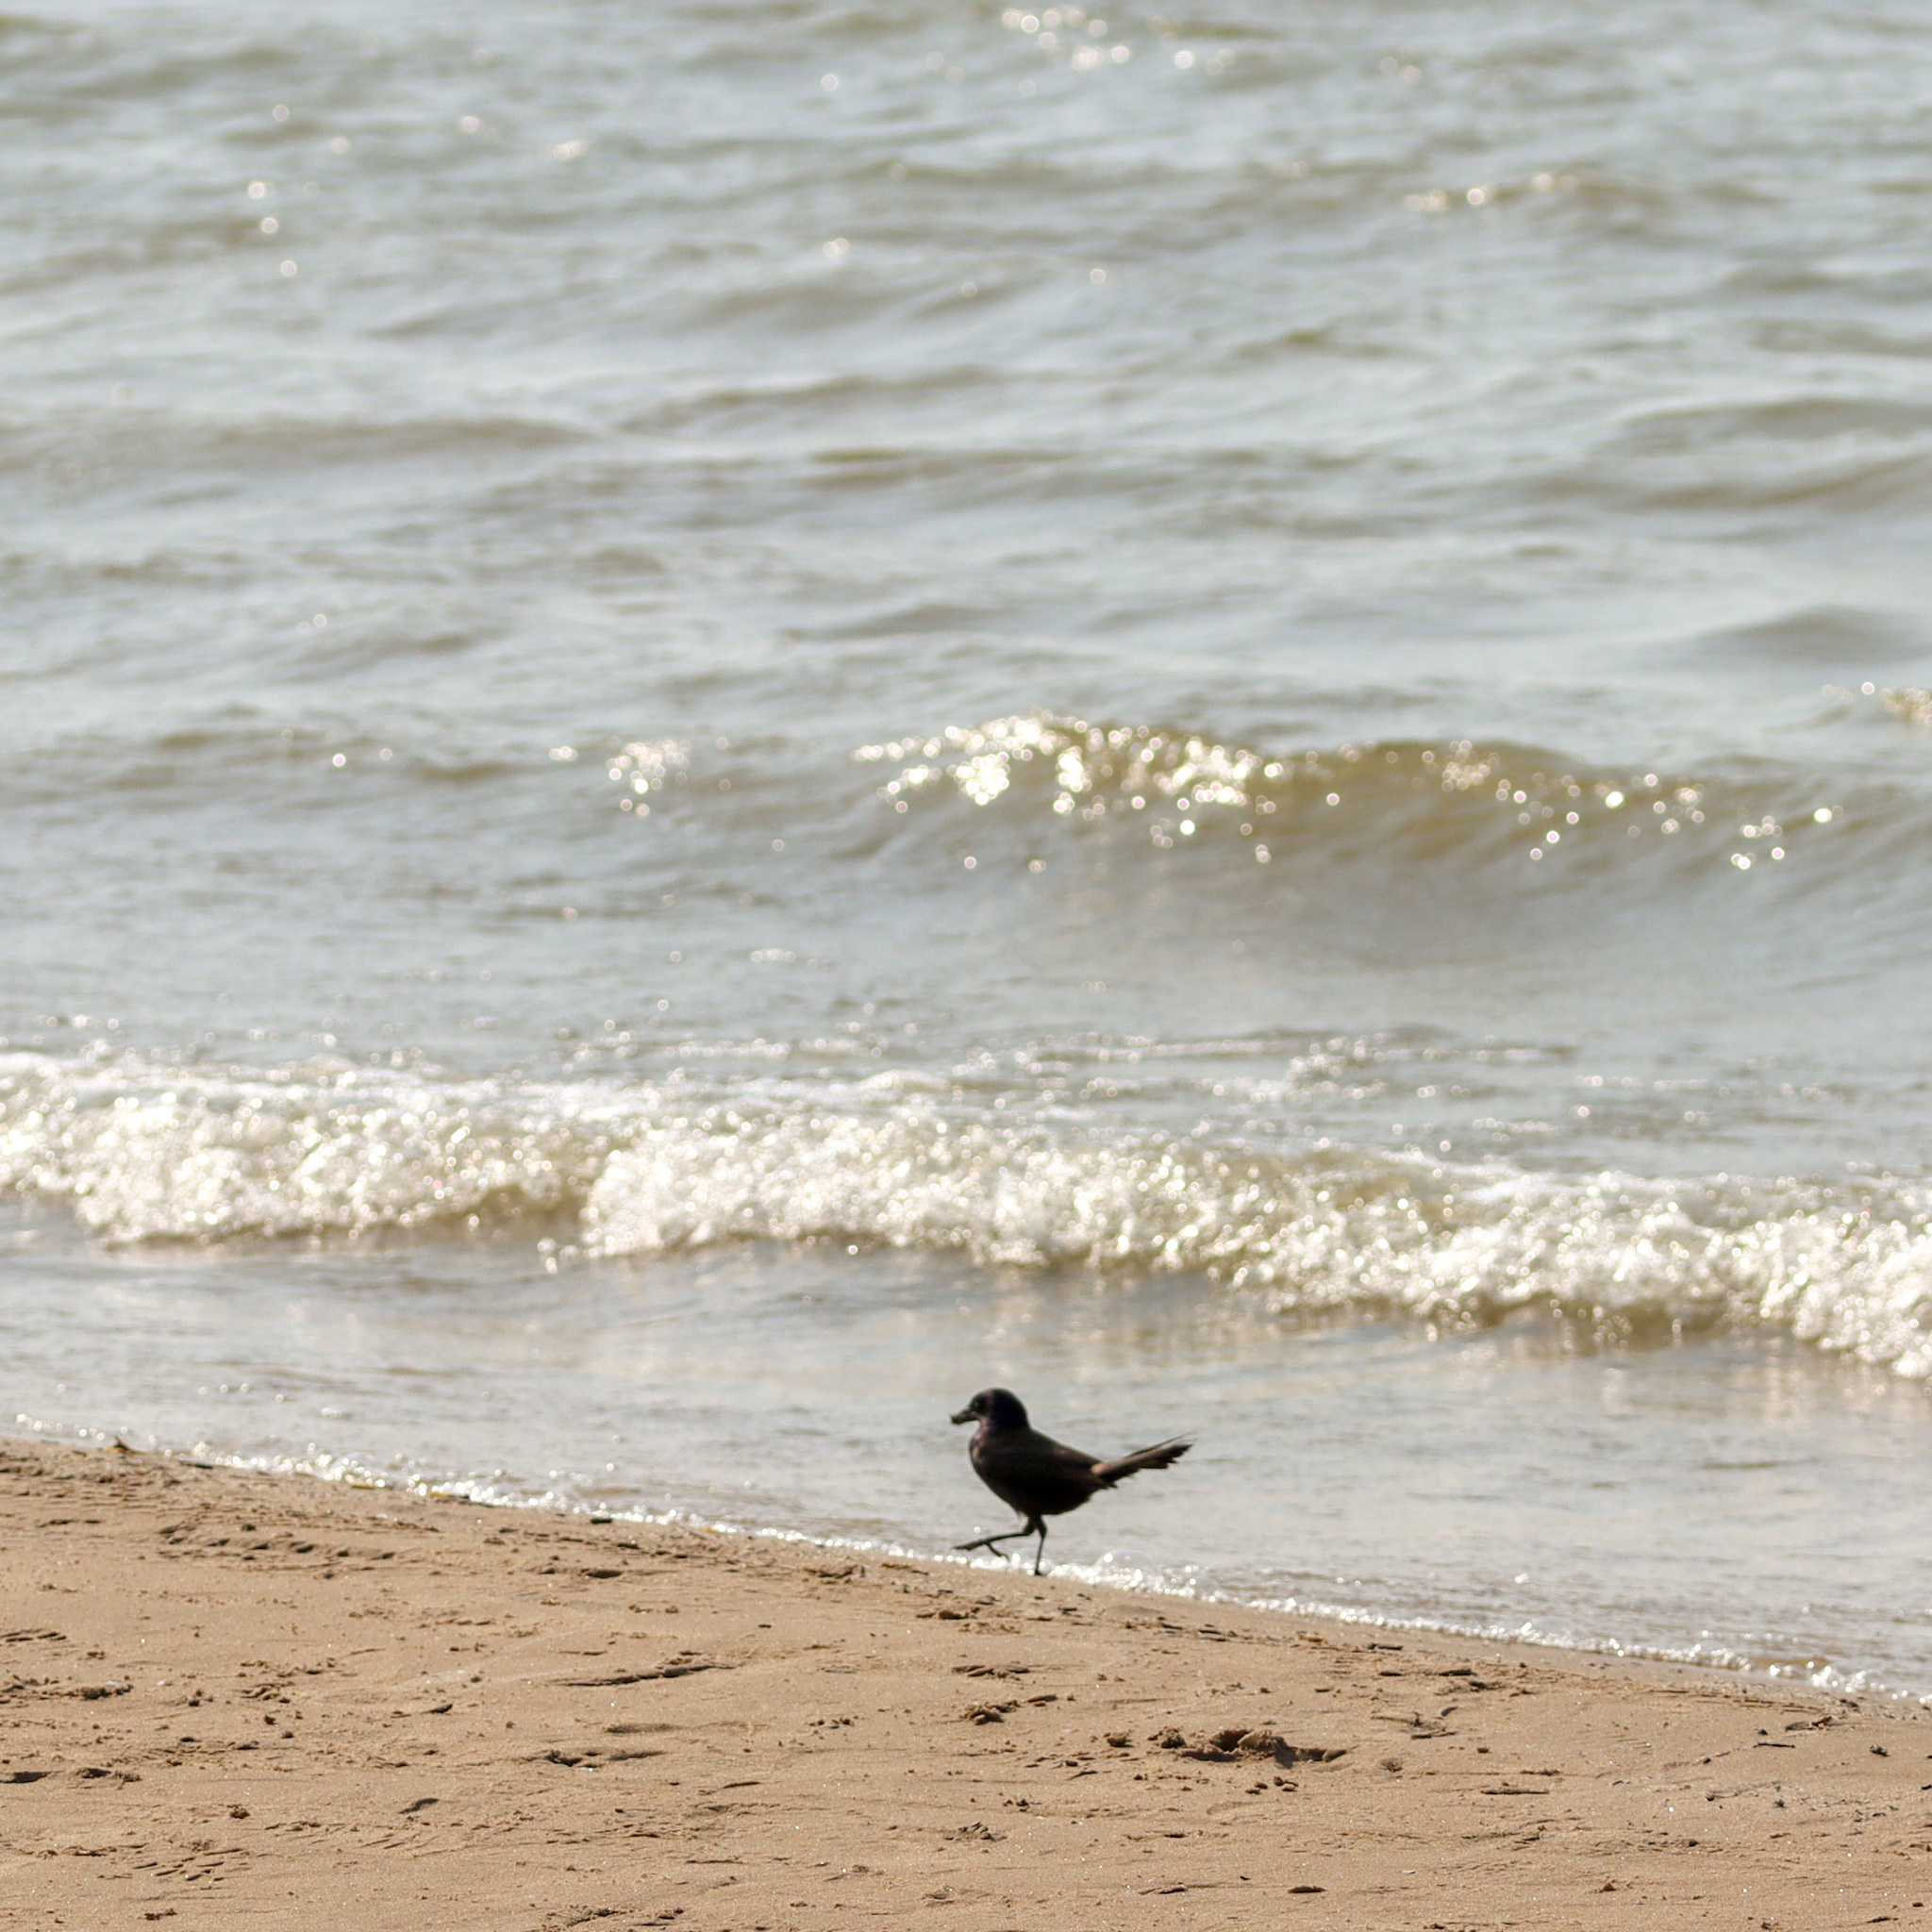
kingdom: Animalia
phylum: Chordata
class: Aves
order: Passeriformes
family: Icteridae
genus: Quiscalus
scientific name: Quiscalus quiscula
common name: Common grackle
